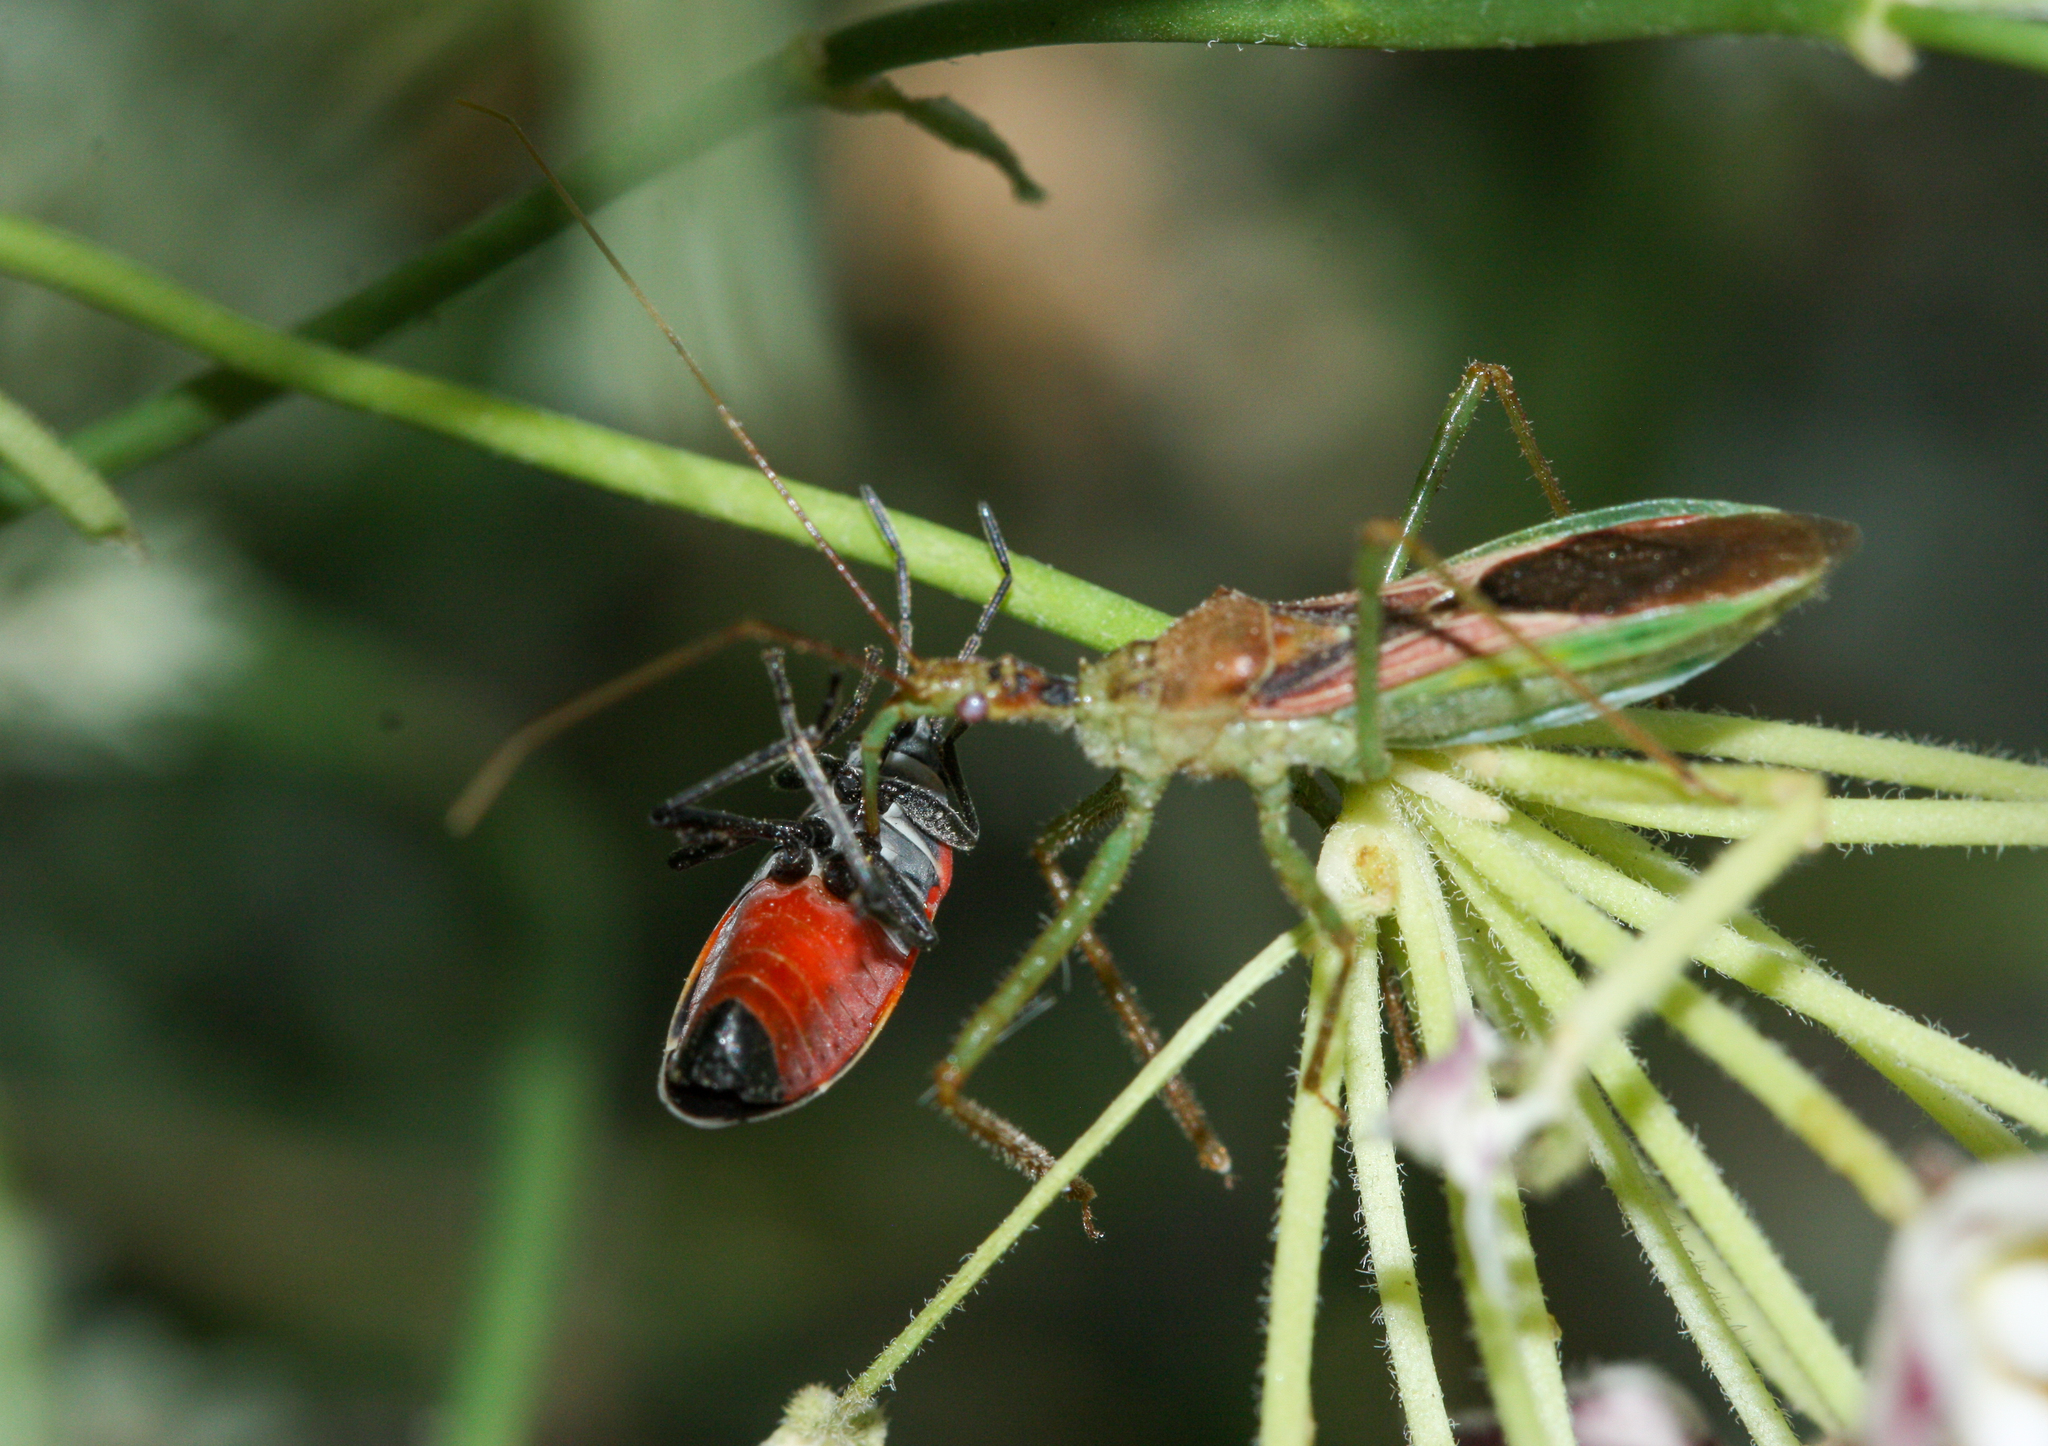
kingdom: Animalia
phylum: Arthropoda
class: Insecta
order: Hemiptera
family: Reduviidae
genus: Zelus
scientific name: Zelus renardii
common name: Assassin bug
